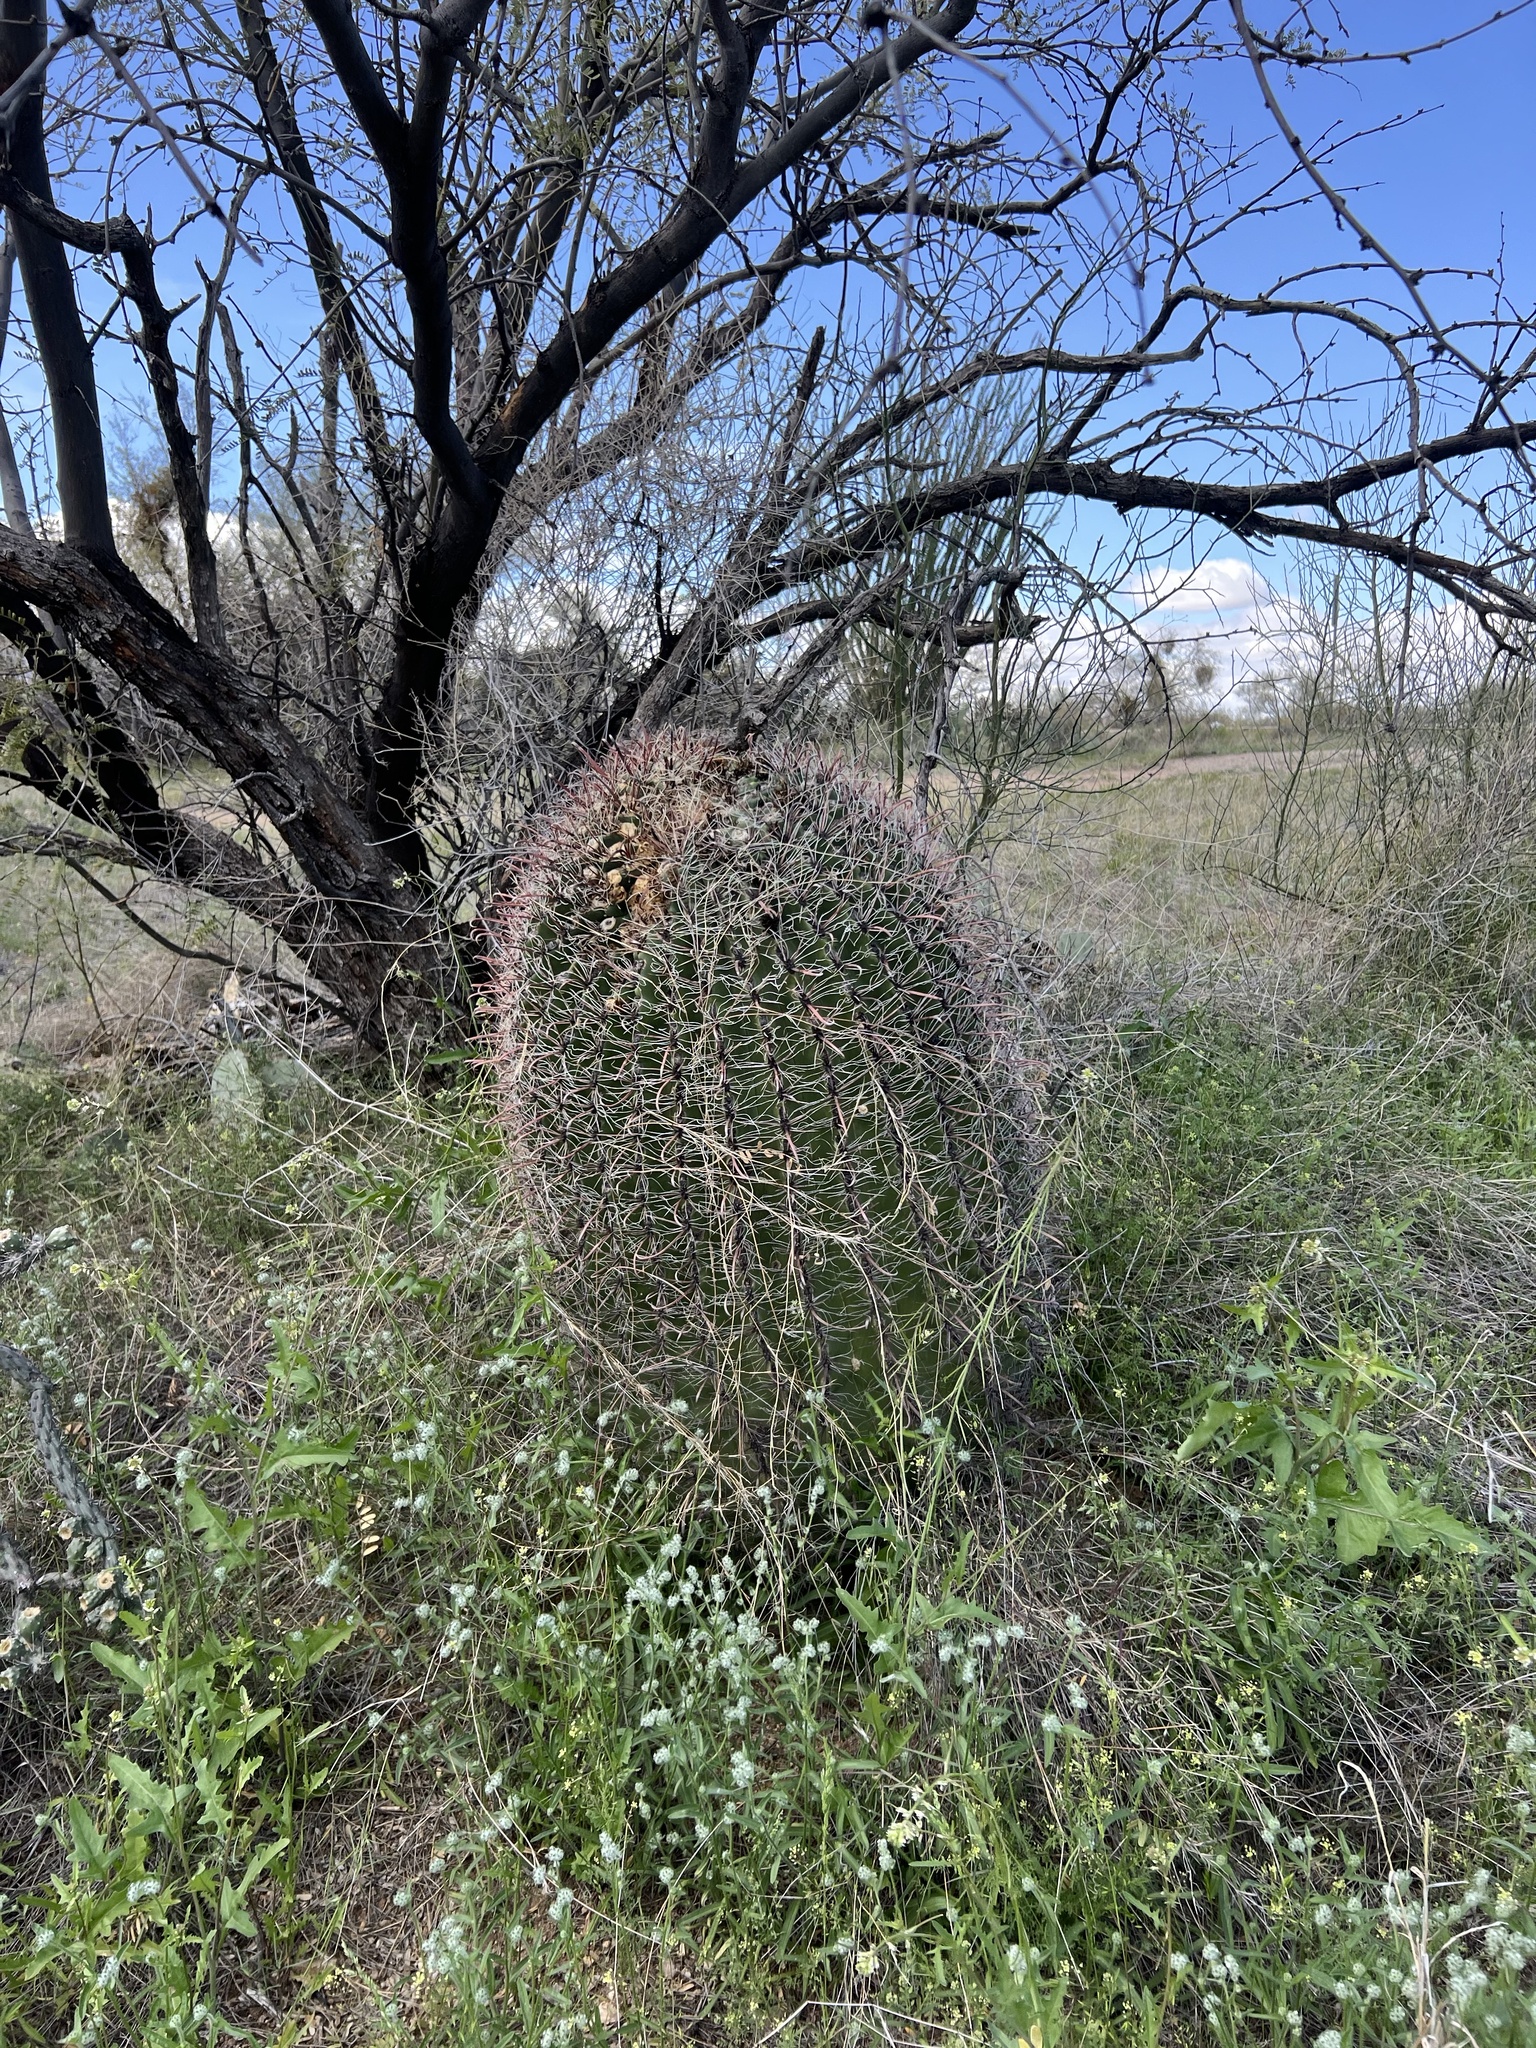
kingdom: Plantae
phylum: Tracheophyta
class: Magnoliopsida
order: Caryophyllales
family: Cactaceae
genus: Ferocactus
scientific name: Ferocactus wislizeni
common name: Candy barrel cactus
